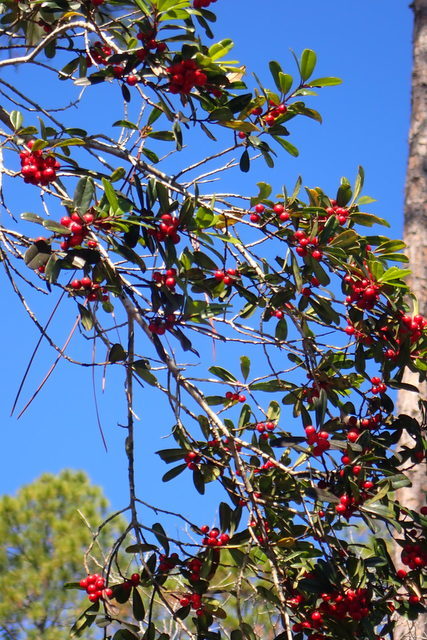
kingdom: Plantae
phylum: Tracheophyta
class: Magnoliopsida
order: Aquifoliales
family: Aquifoliaceae
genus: Ilex
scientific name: Ilex cassine
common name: Dahoon
